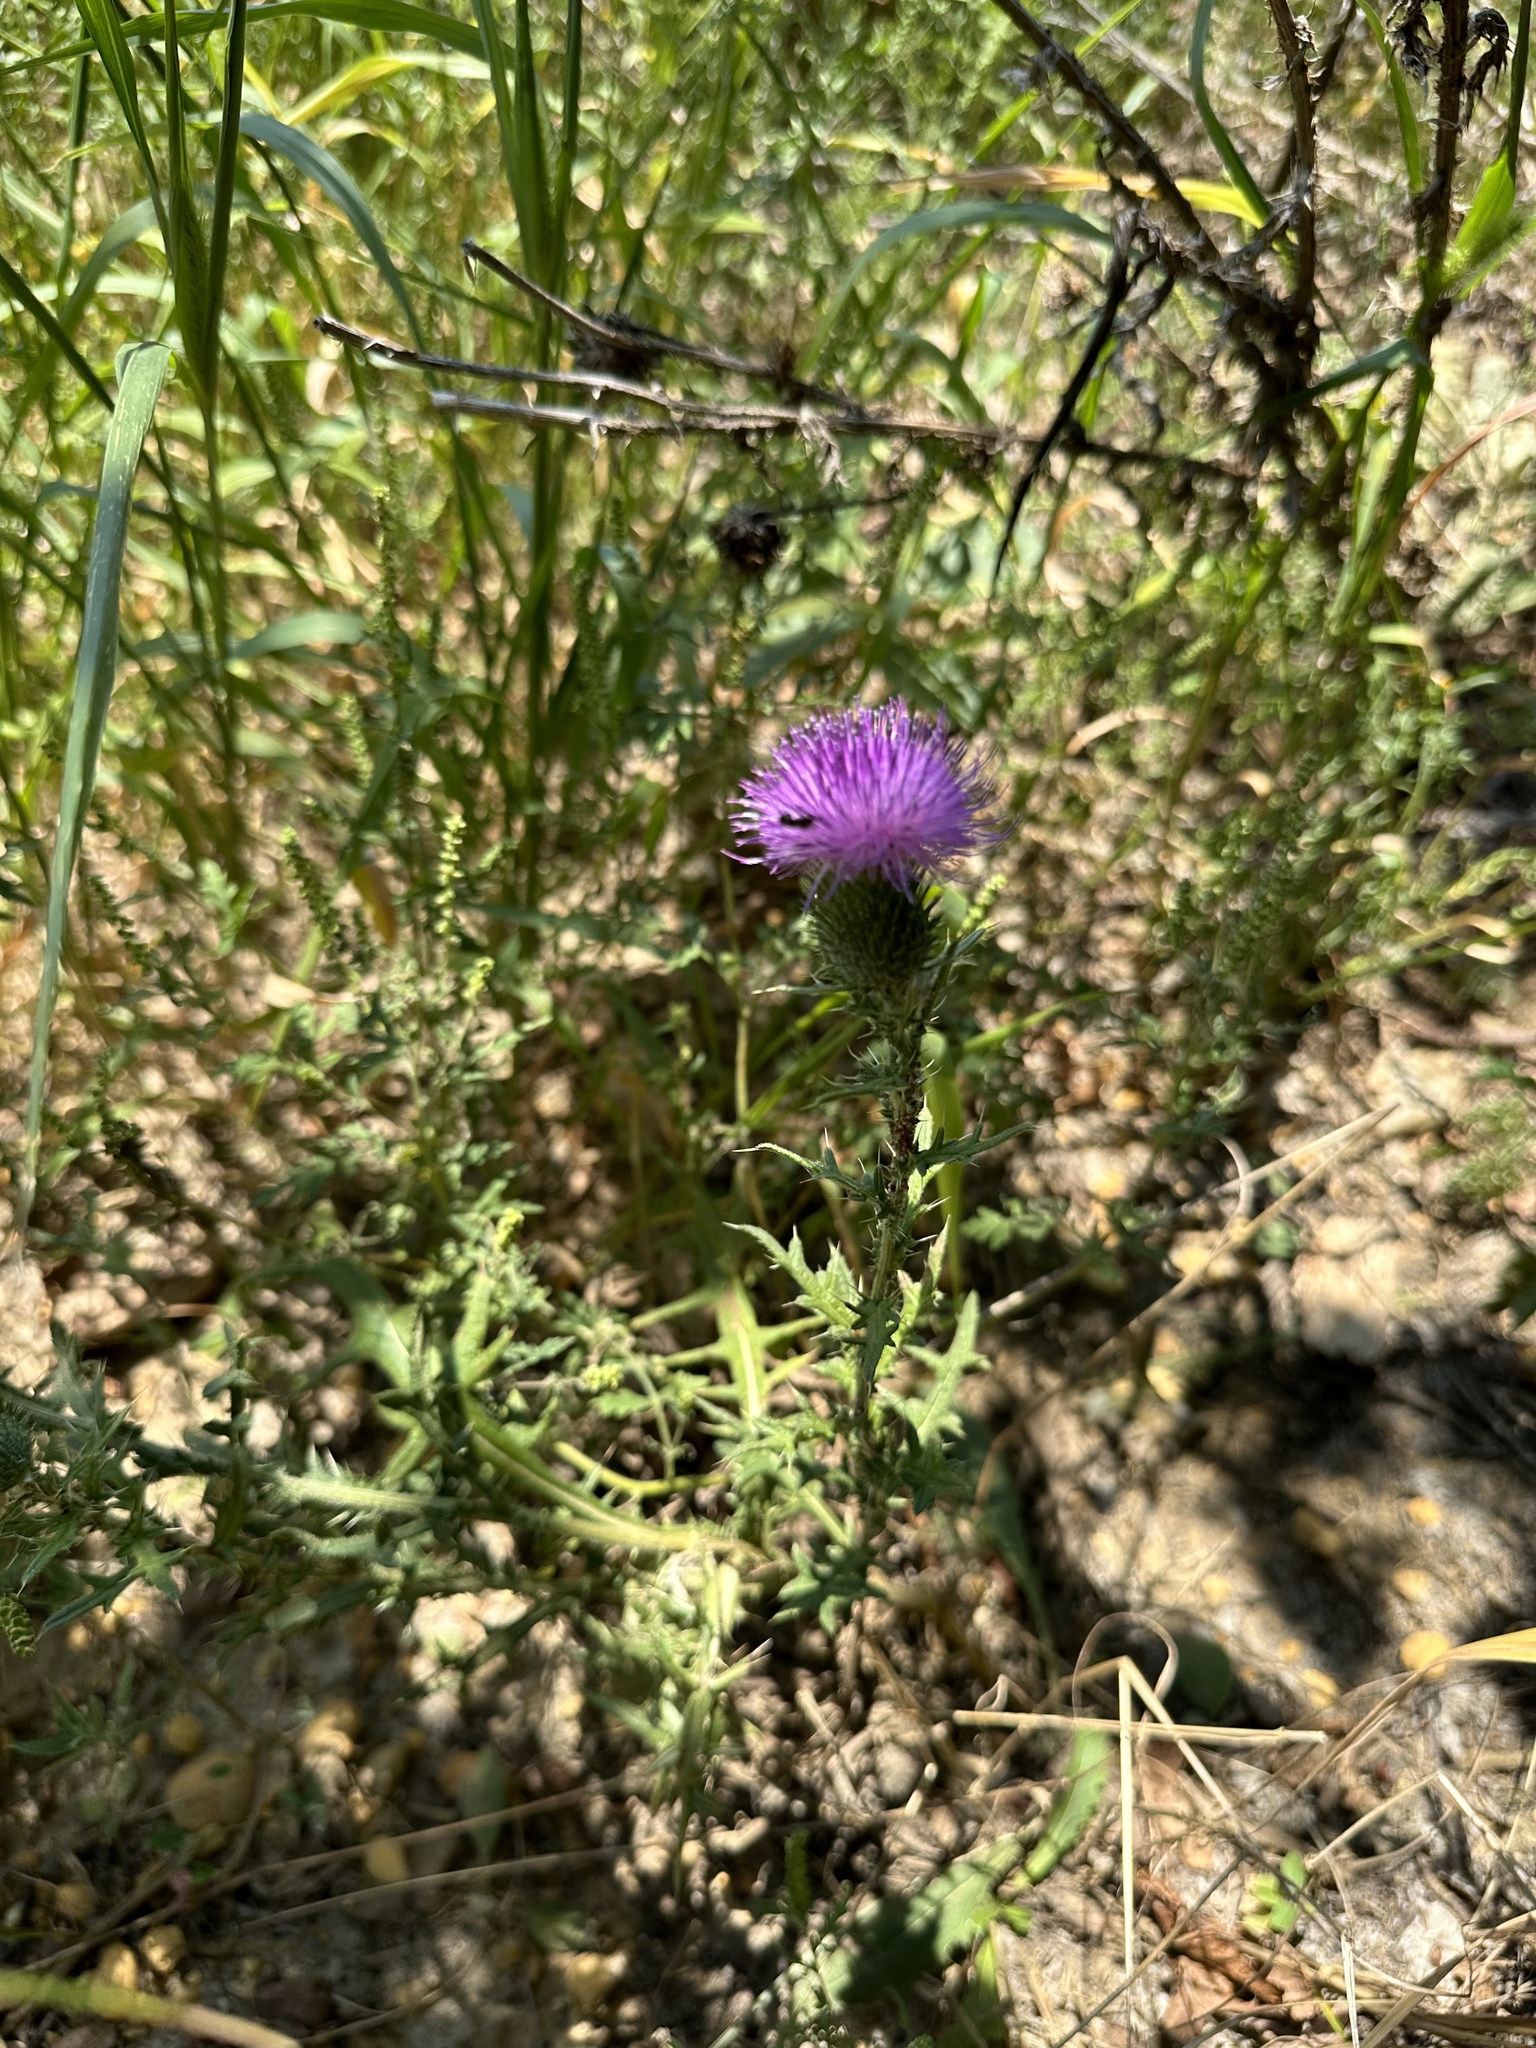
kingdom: Plantae
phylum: Tracheophyta
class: Magnoliopsida
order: Asterales
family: Asteraceae
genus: Cirsium
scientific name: Cirsium vulgare
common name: Bull thistle
